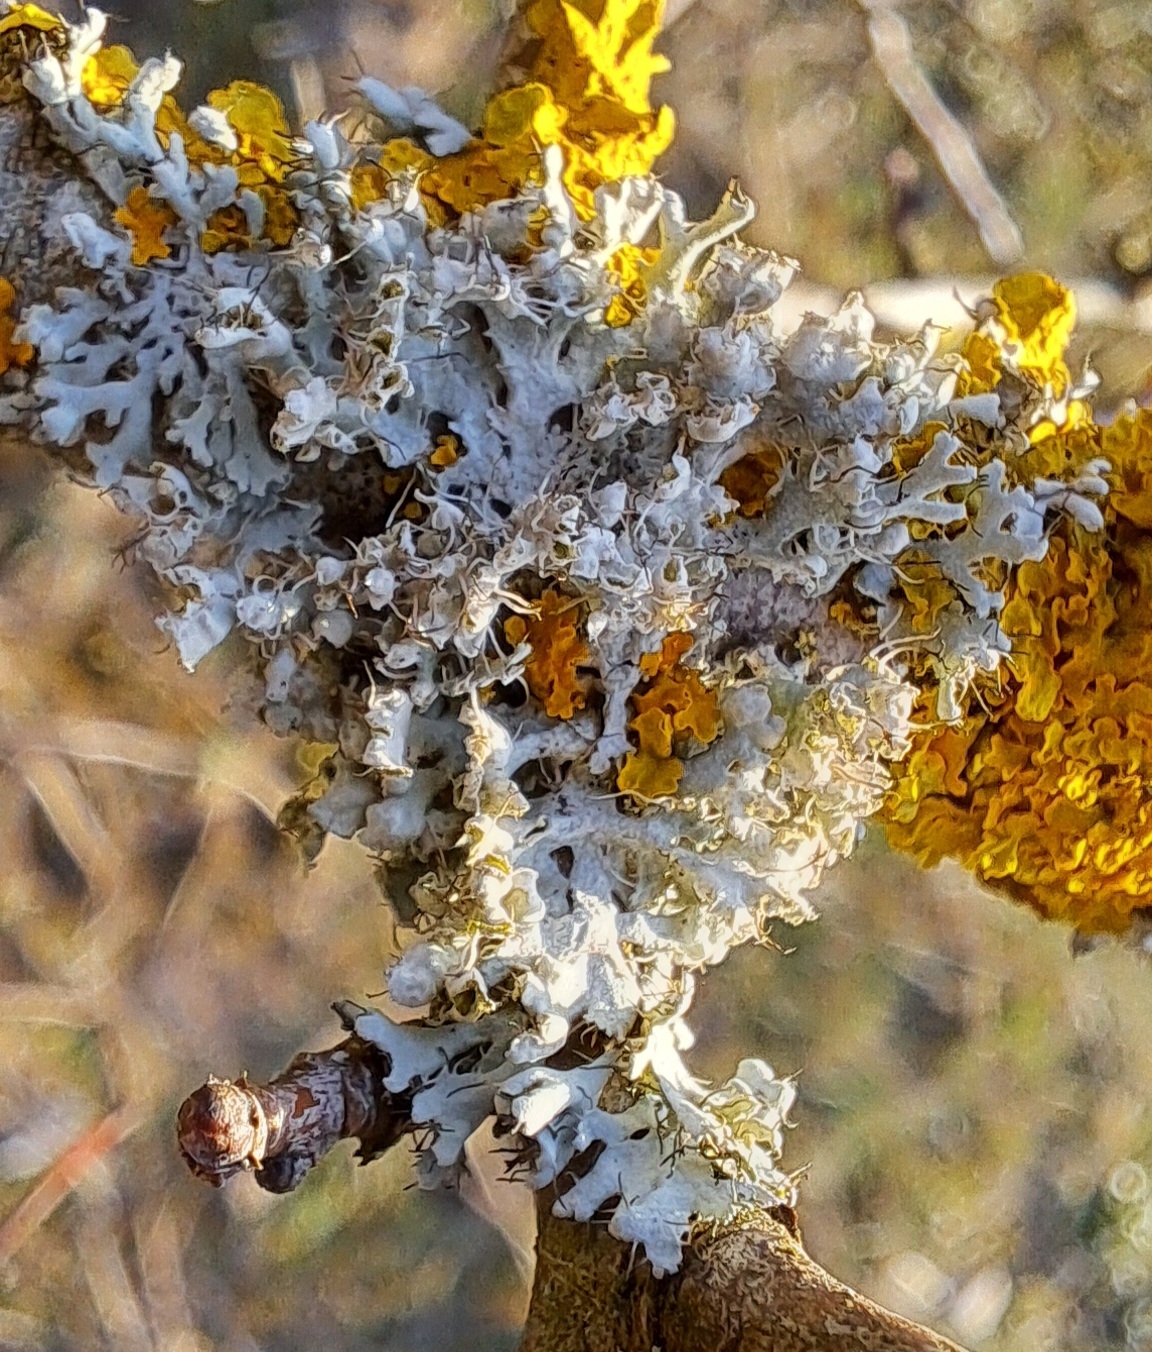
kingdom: Fungi
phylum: Ascomycota
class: Lecanoromycetes
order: Caliciales
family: Physciaceae
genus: Physcia
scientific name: Physcia adscendens
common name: Hooded rosette lichen
